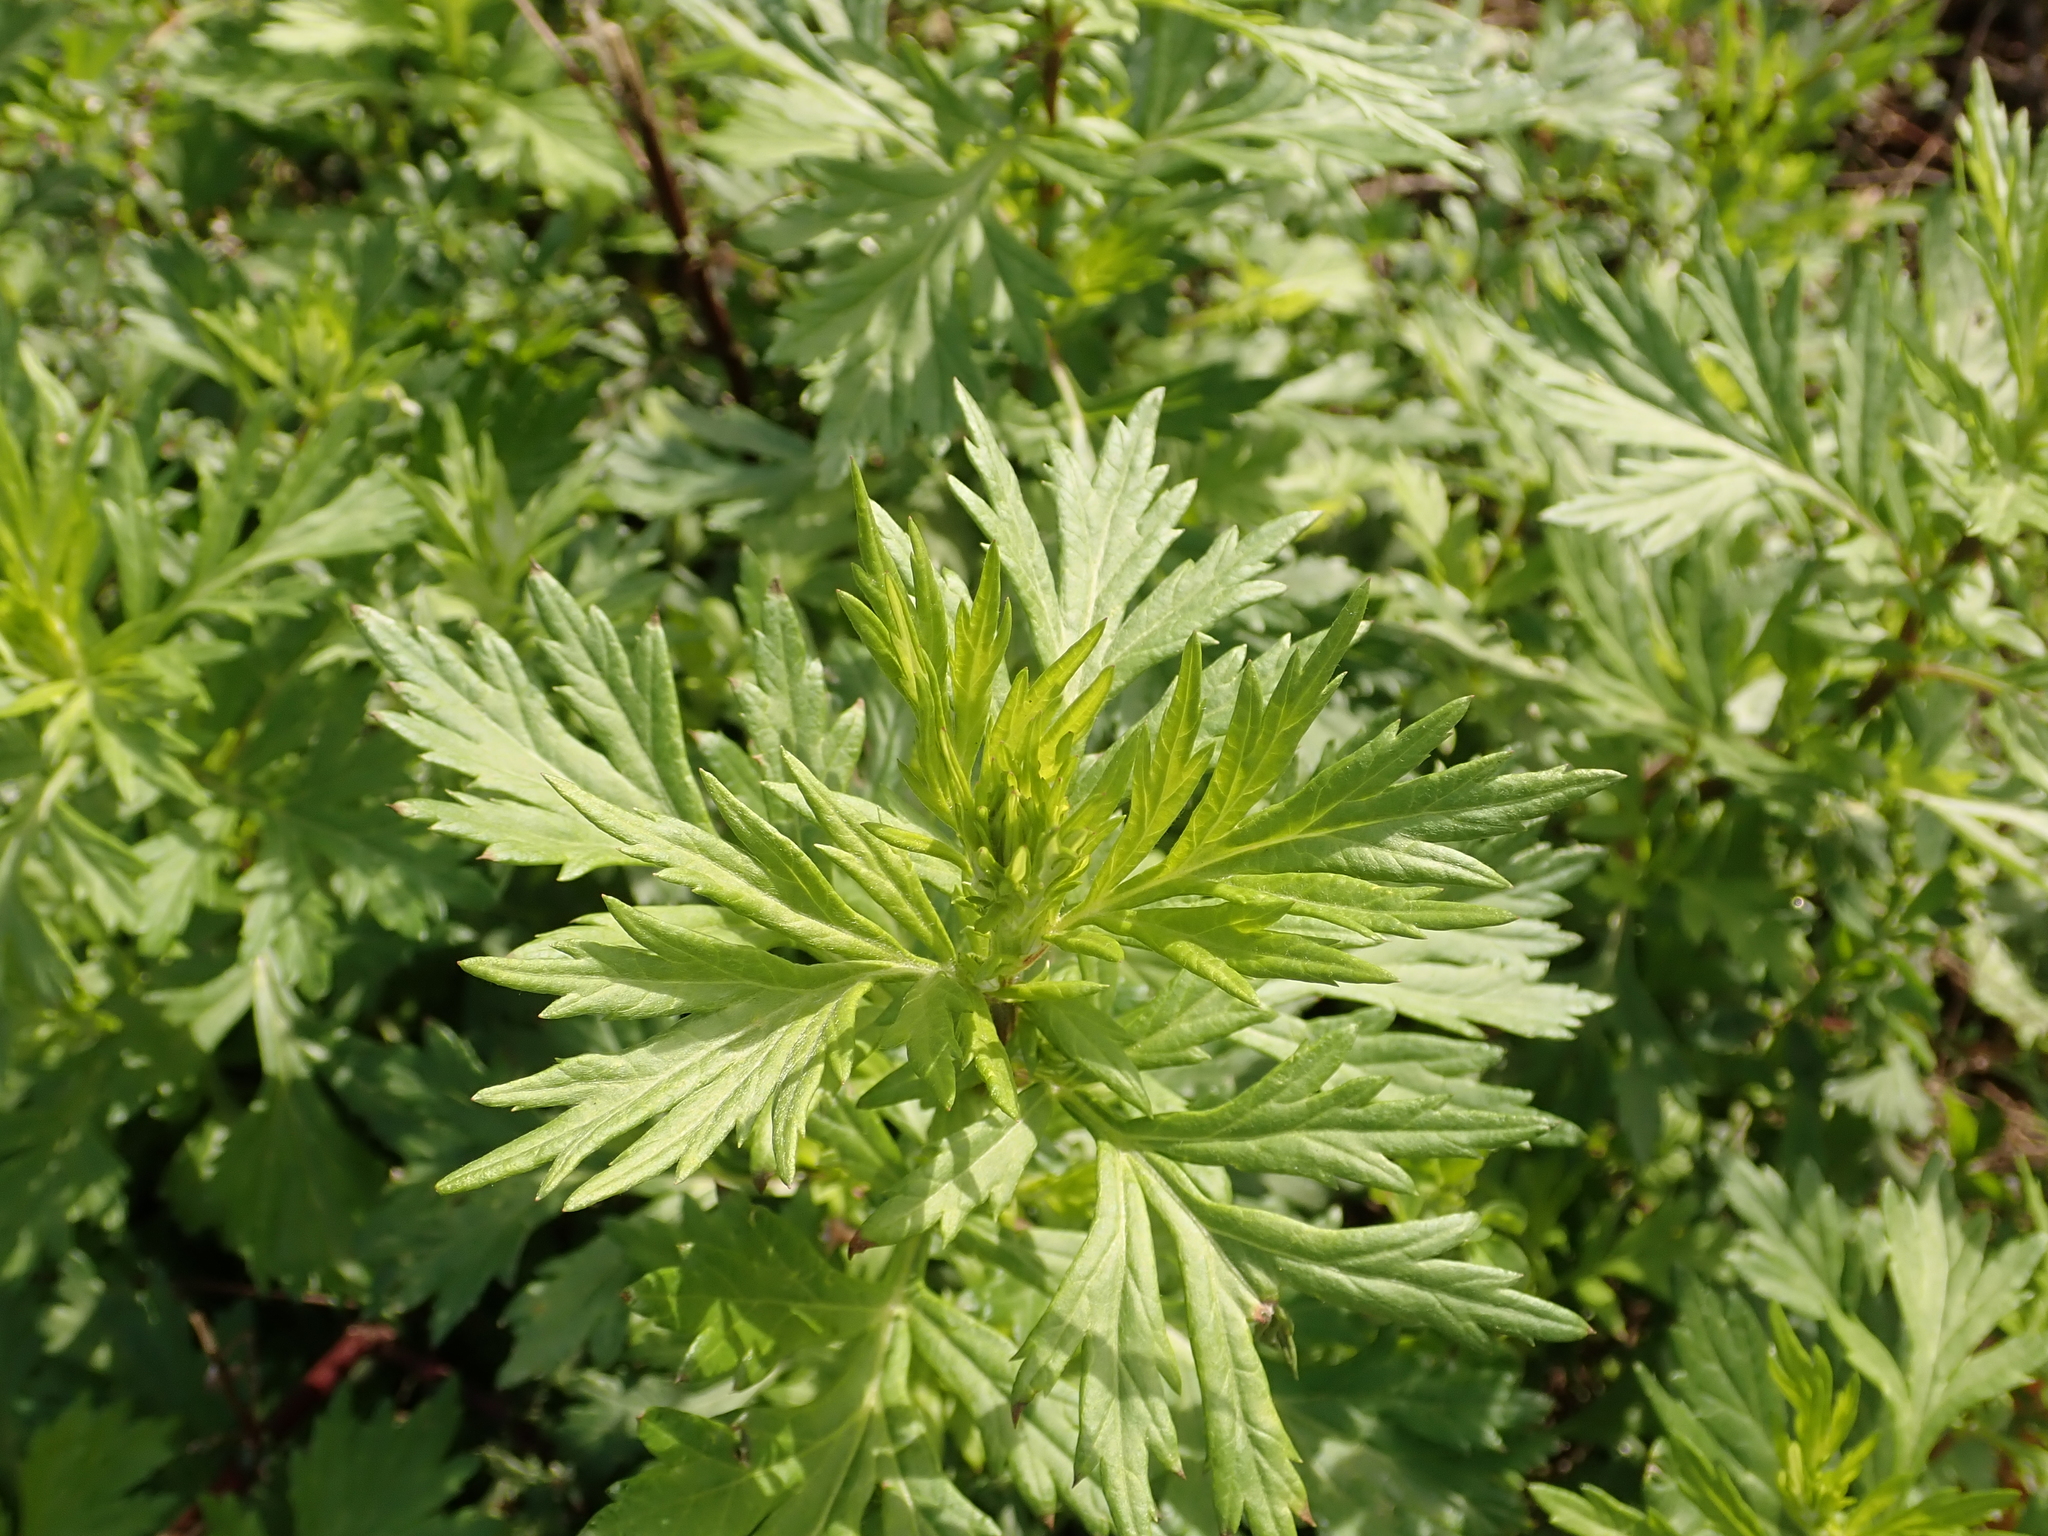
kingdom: Plantae
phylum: Tracheophyta
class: Magnoliopsida
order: Asterales
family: Asteraceae
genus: Artemisia
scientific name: Artemisia vulgaris
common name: Mugwort
